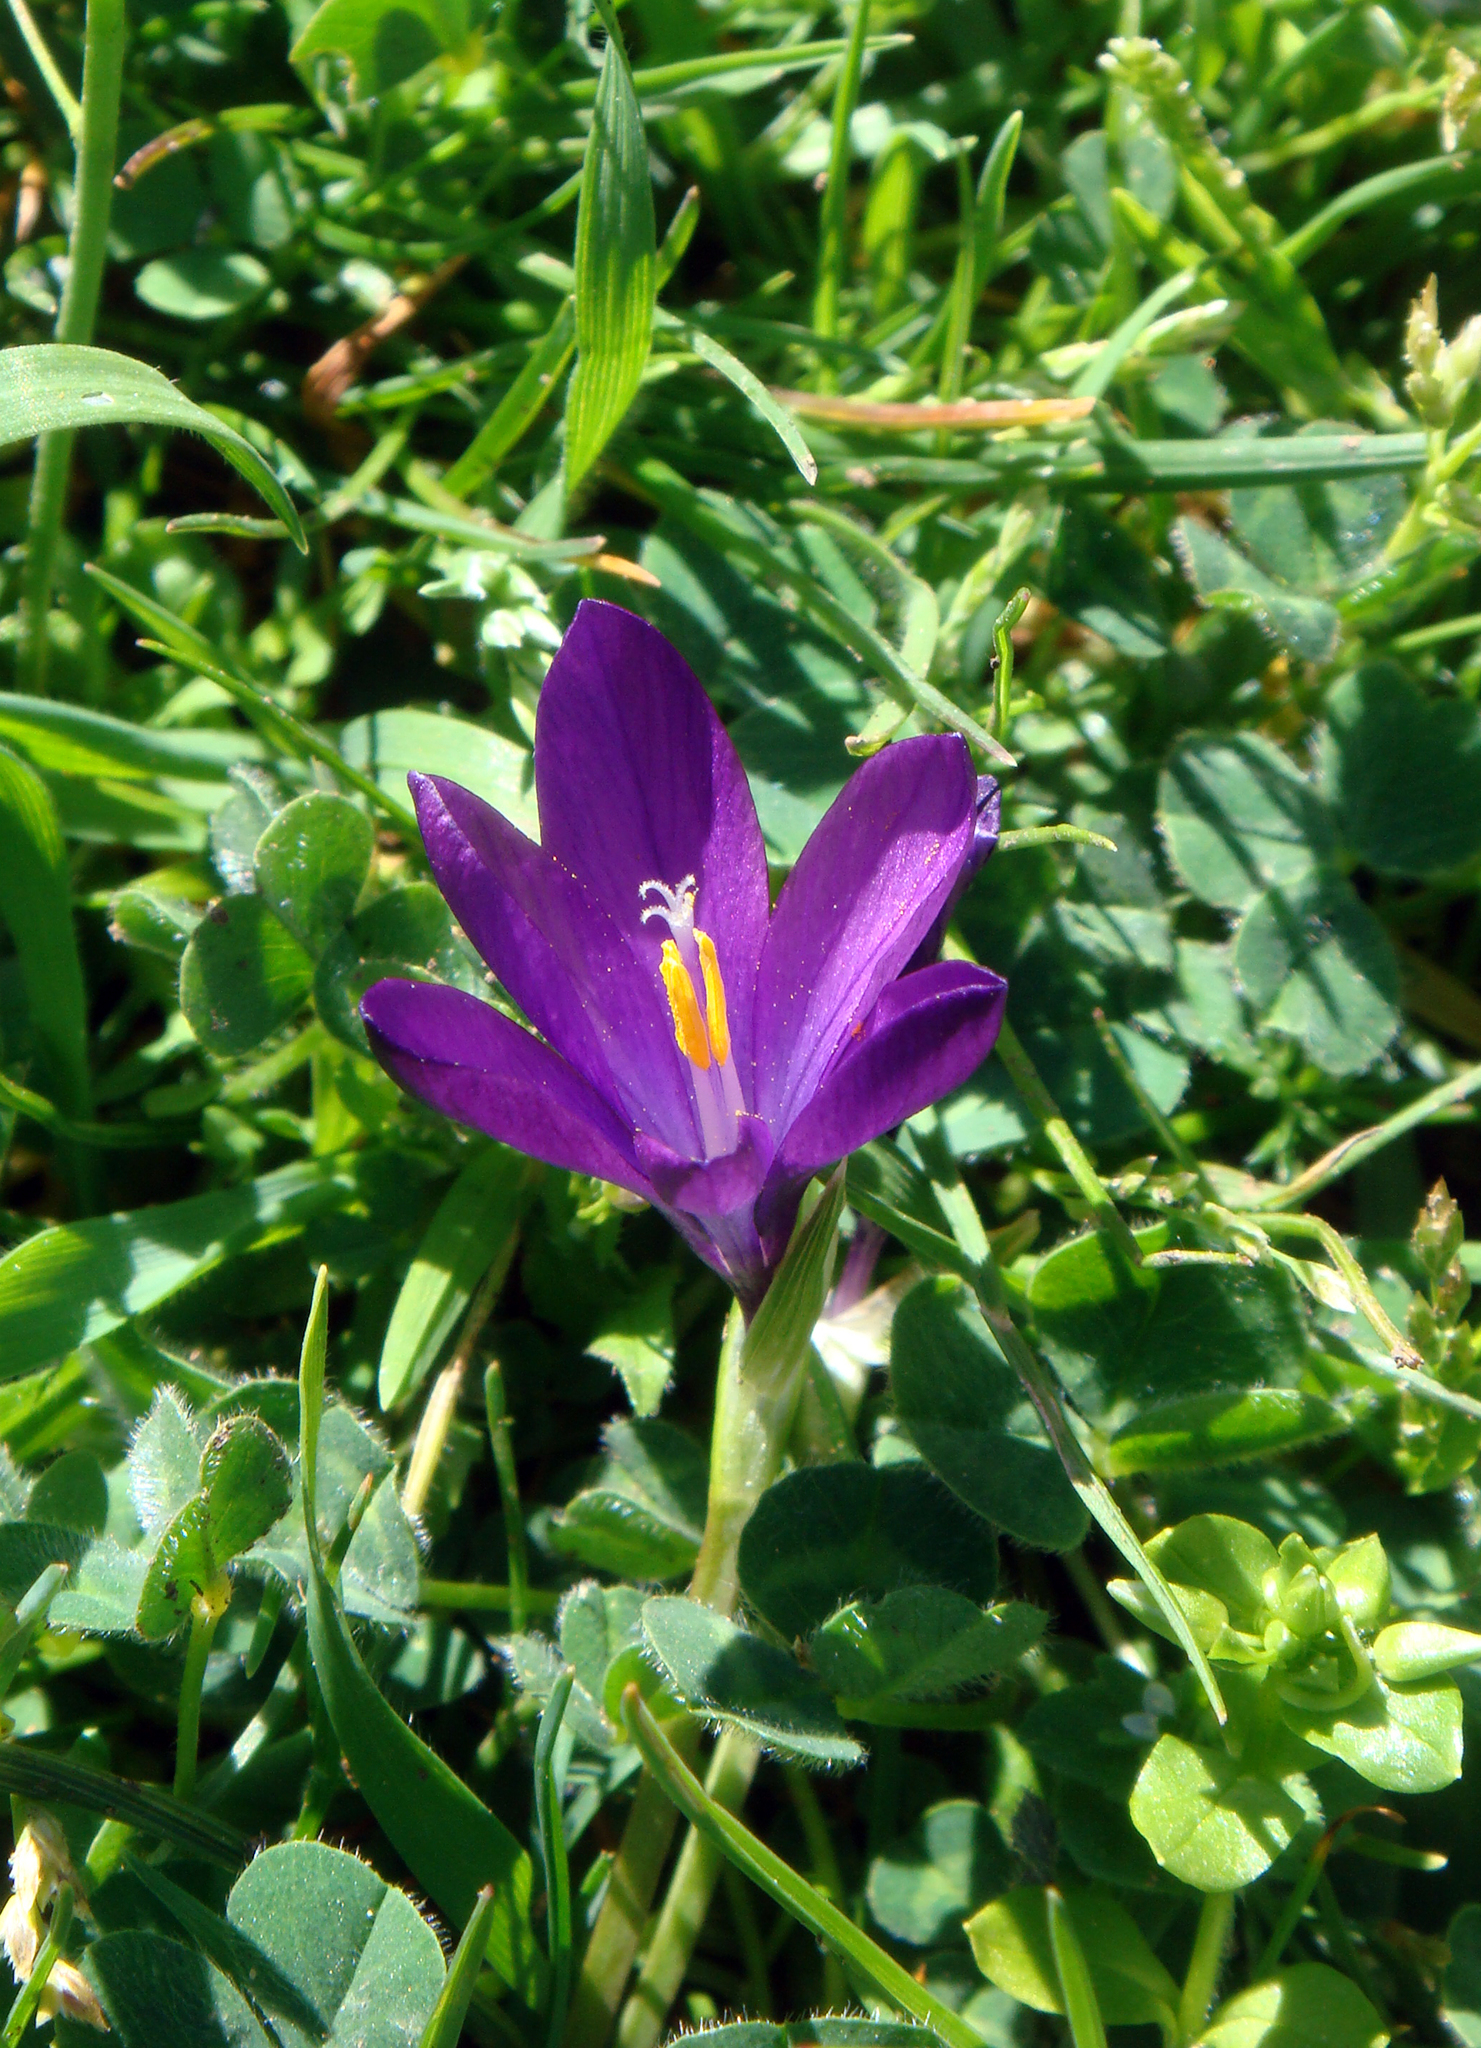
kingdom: Plantae
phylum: Tracheophyta
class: Liliopsida
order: Asparagales
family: Iridaceae
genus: Romulea
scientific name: Romulea requienii
